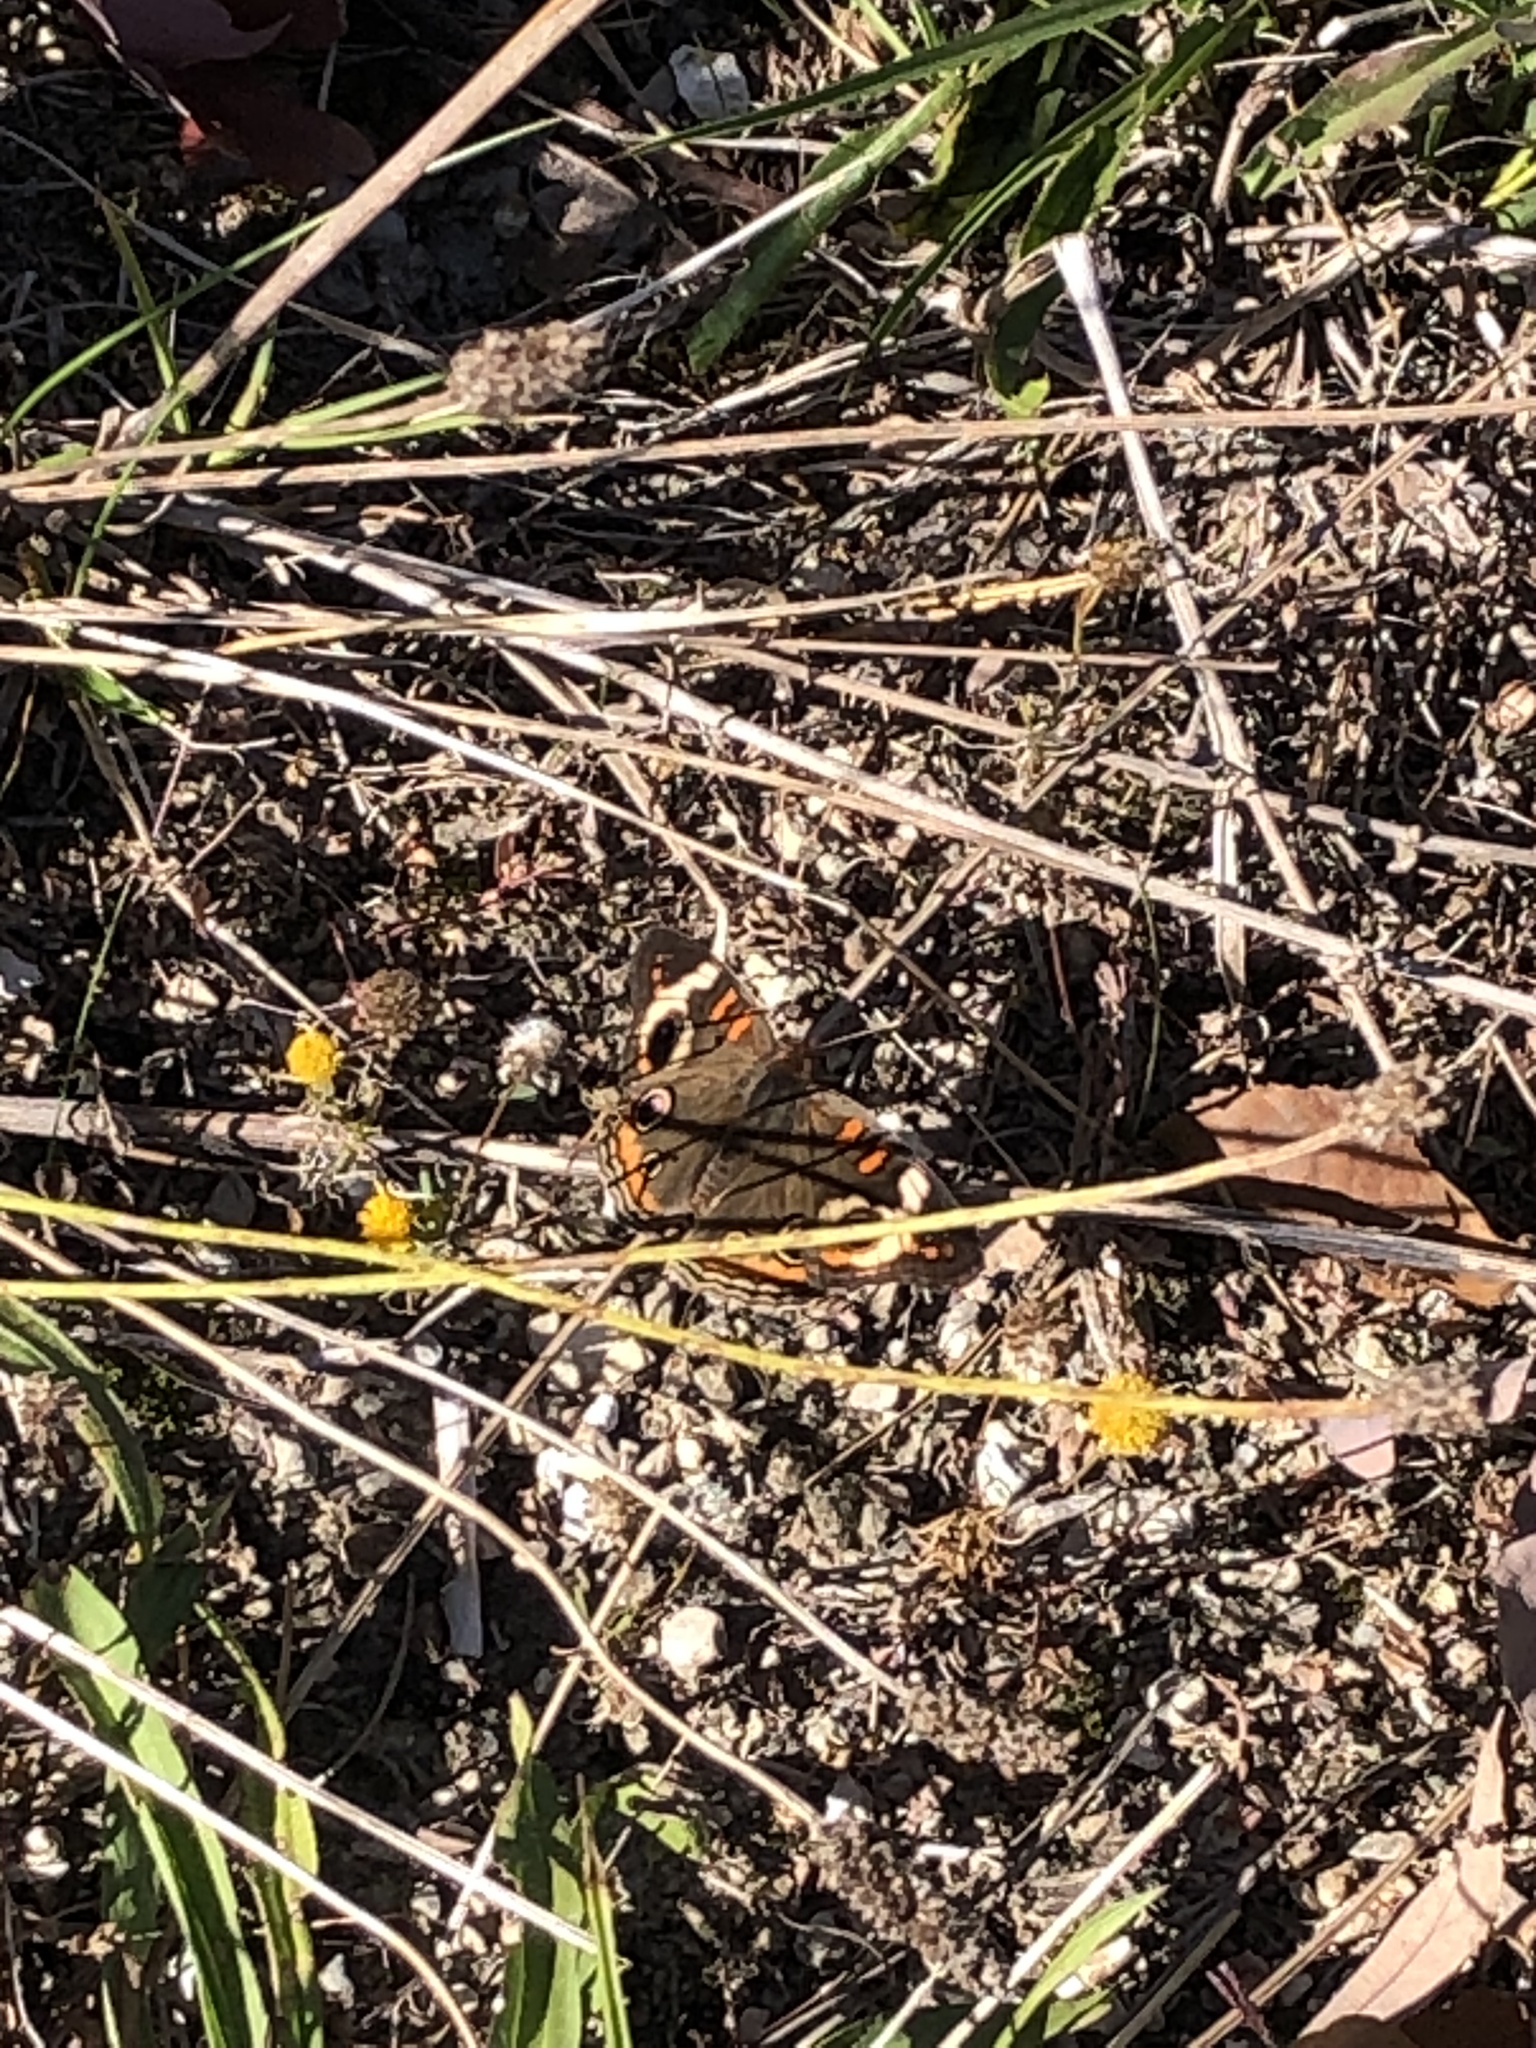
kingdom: Animalia
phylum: Arthropoda
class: Insecta
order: Lepidoptera
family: Nymphalidae
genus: Junonia
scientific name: Junonia coenia
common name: Common buckeye
